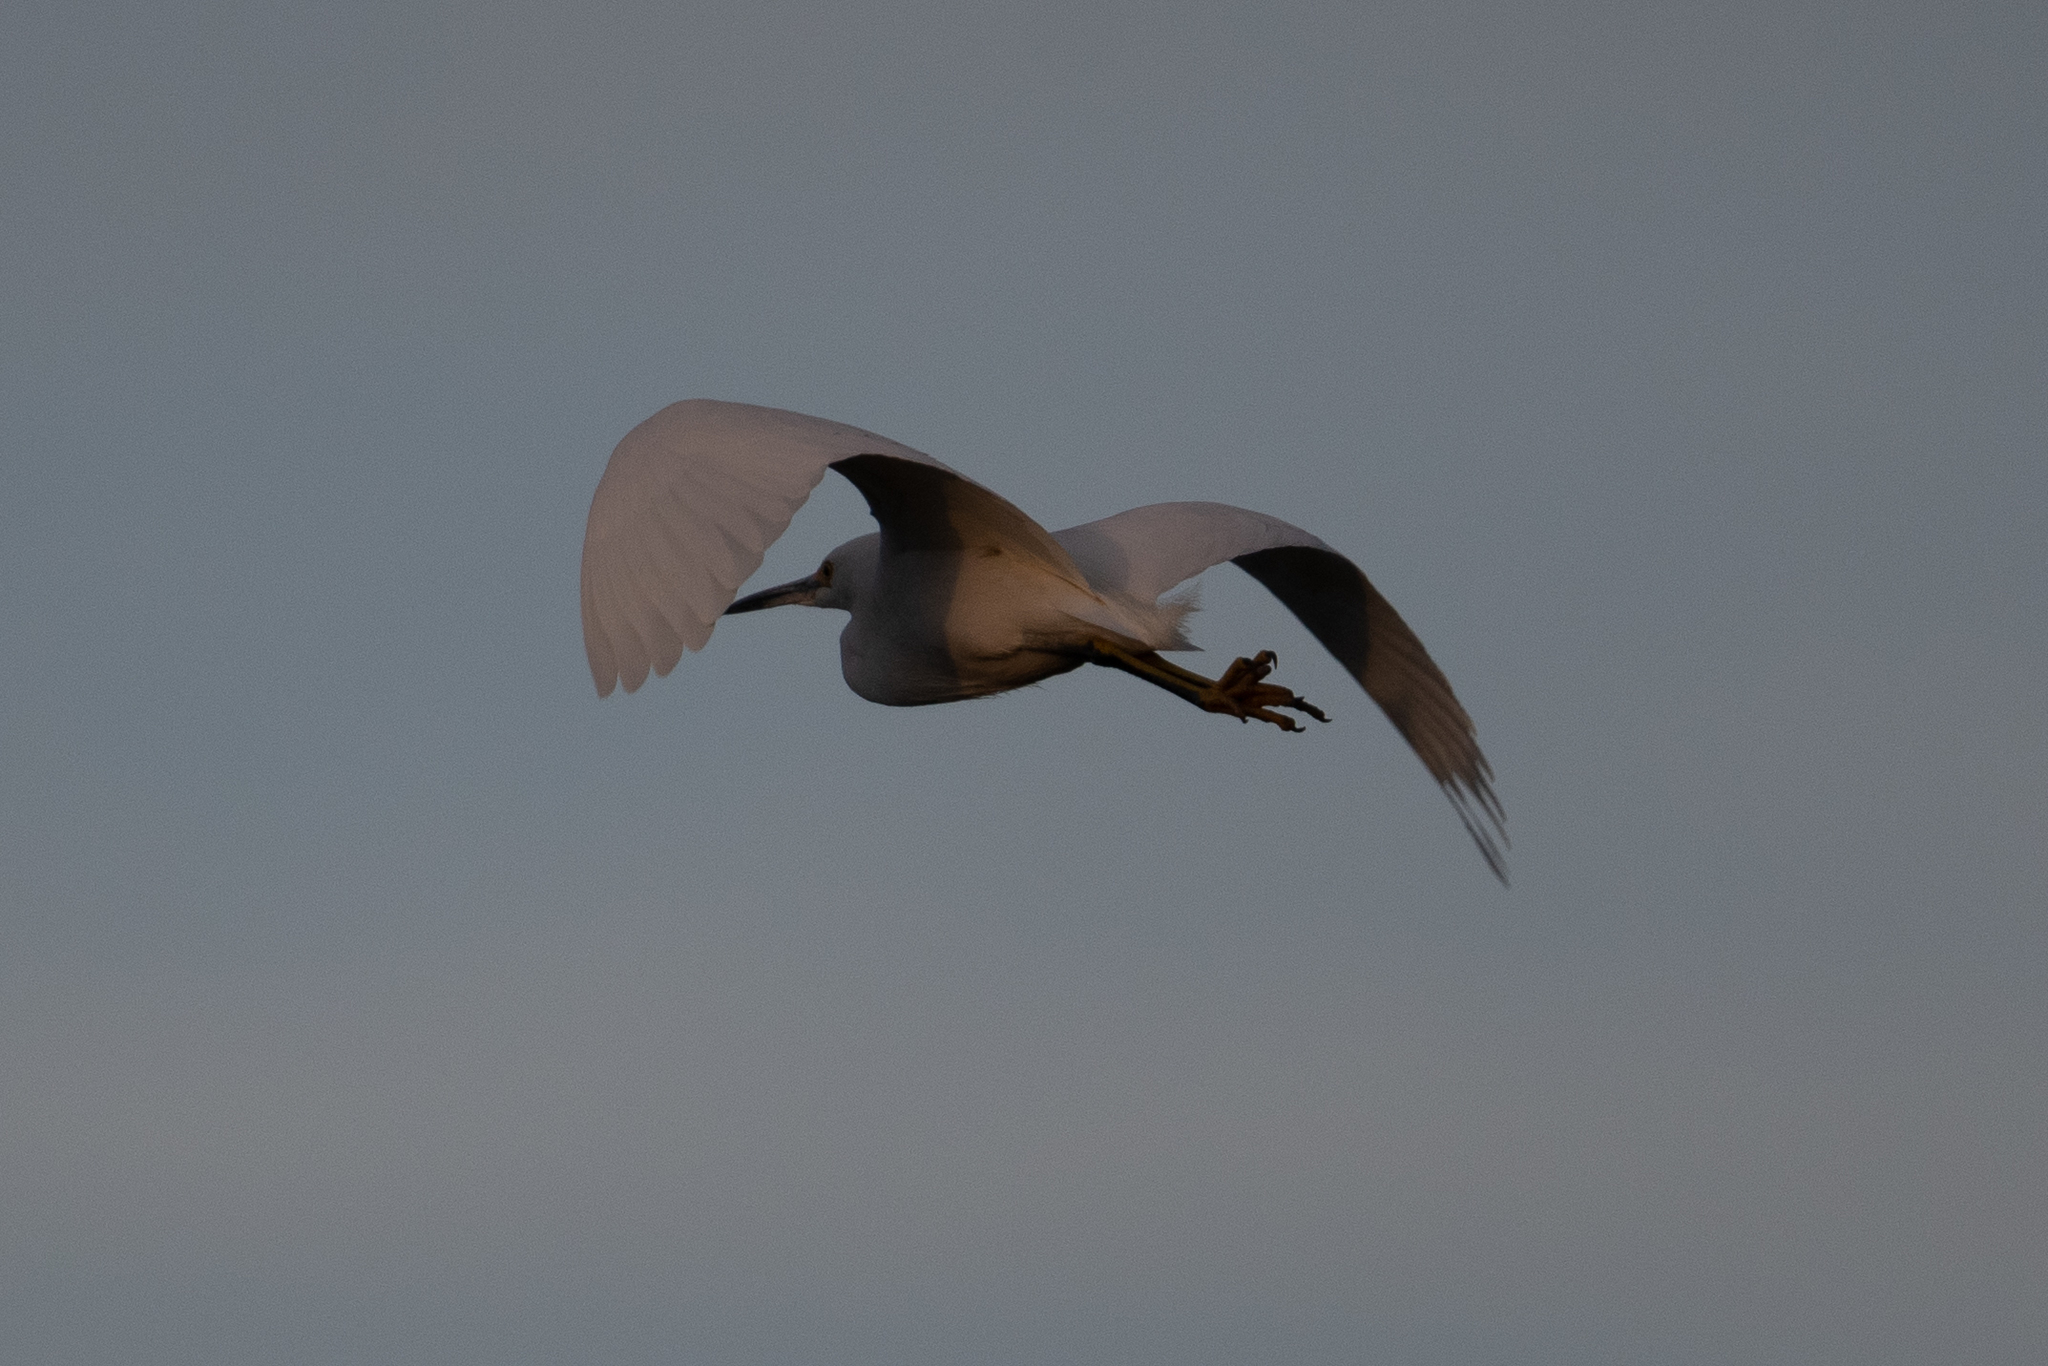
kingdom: Animalia
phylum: Chordata
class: Aves
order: Pelecaniformes
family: Ardeidae
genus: Ardea
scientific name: Ardea alba
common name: Great egret
